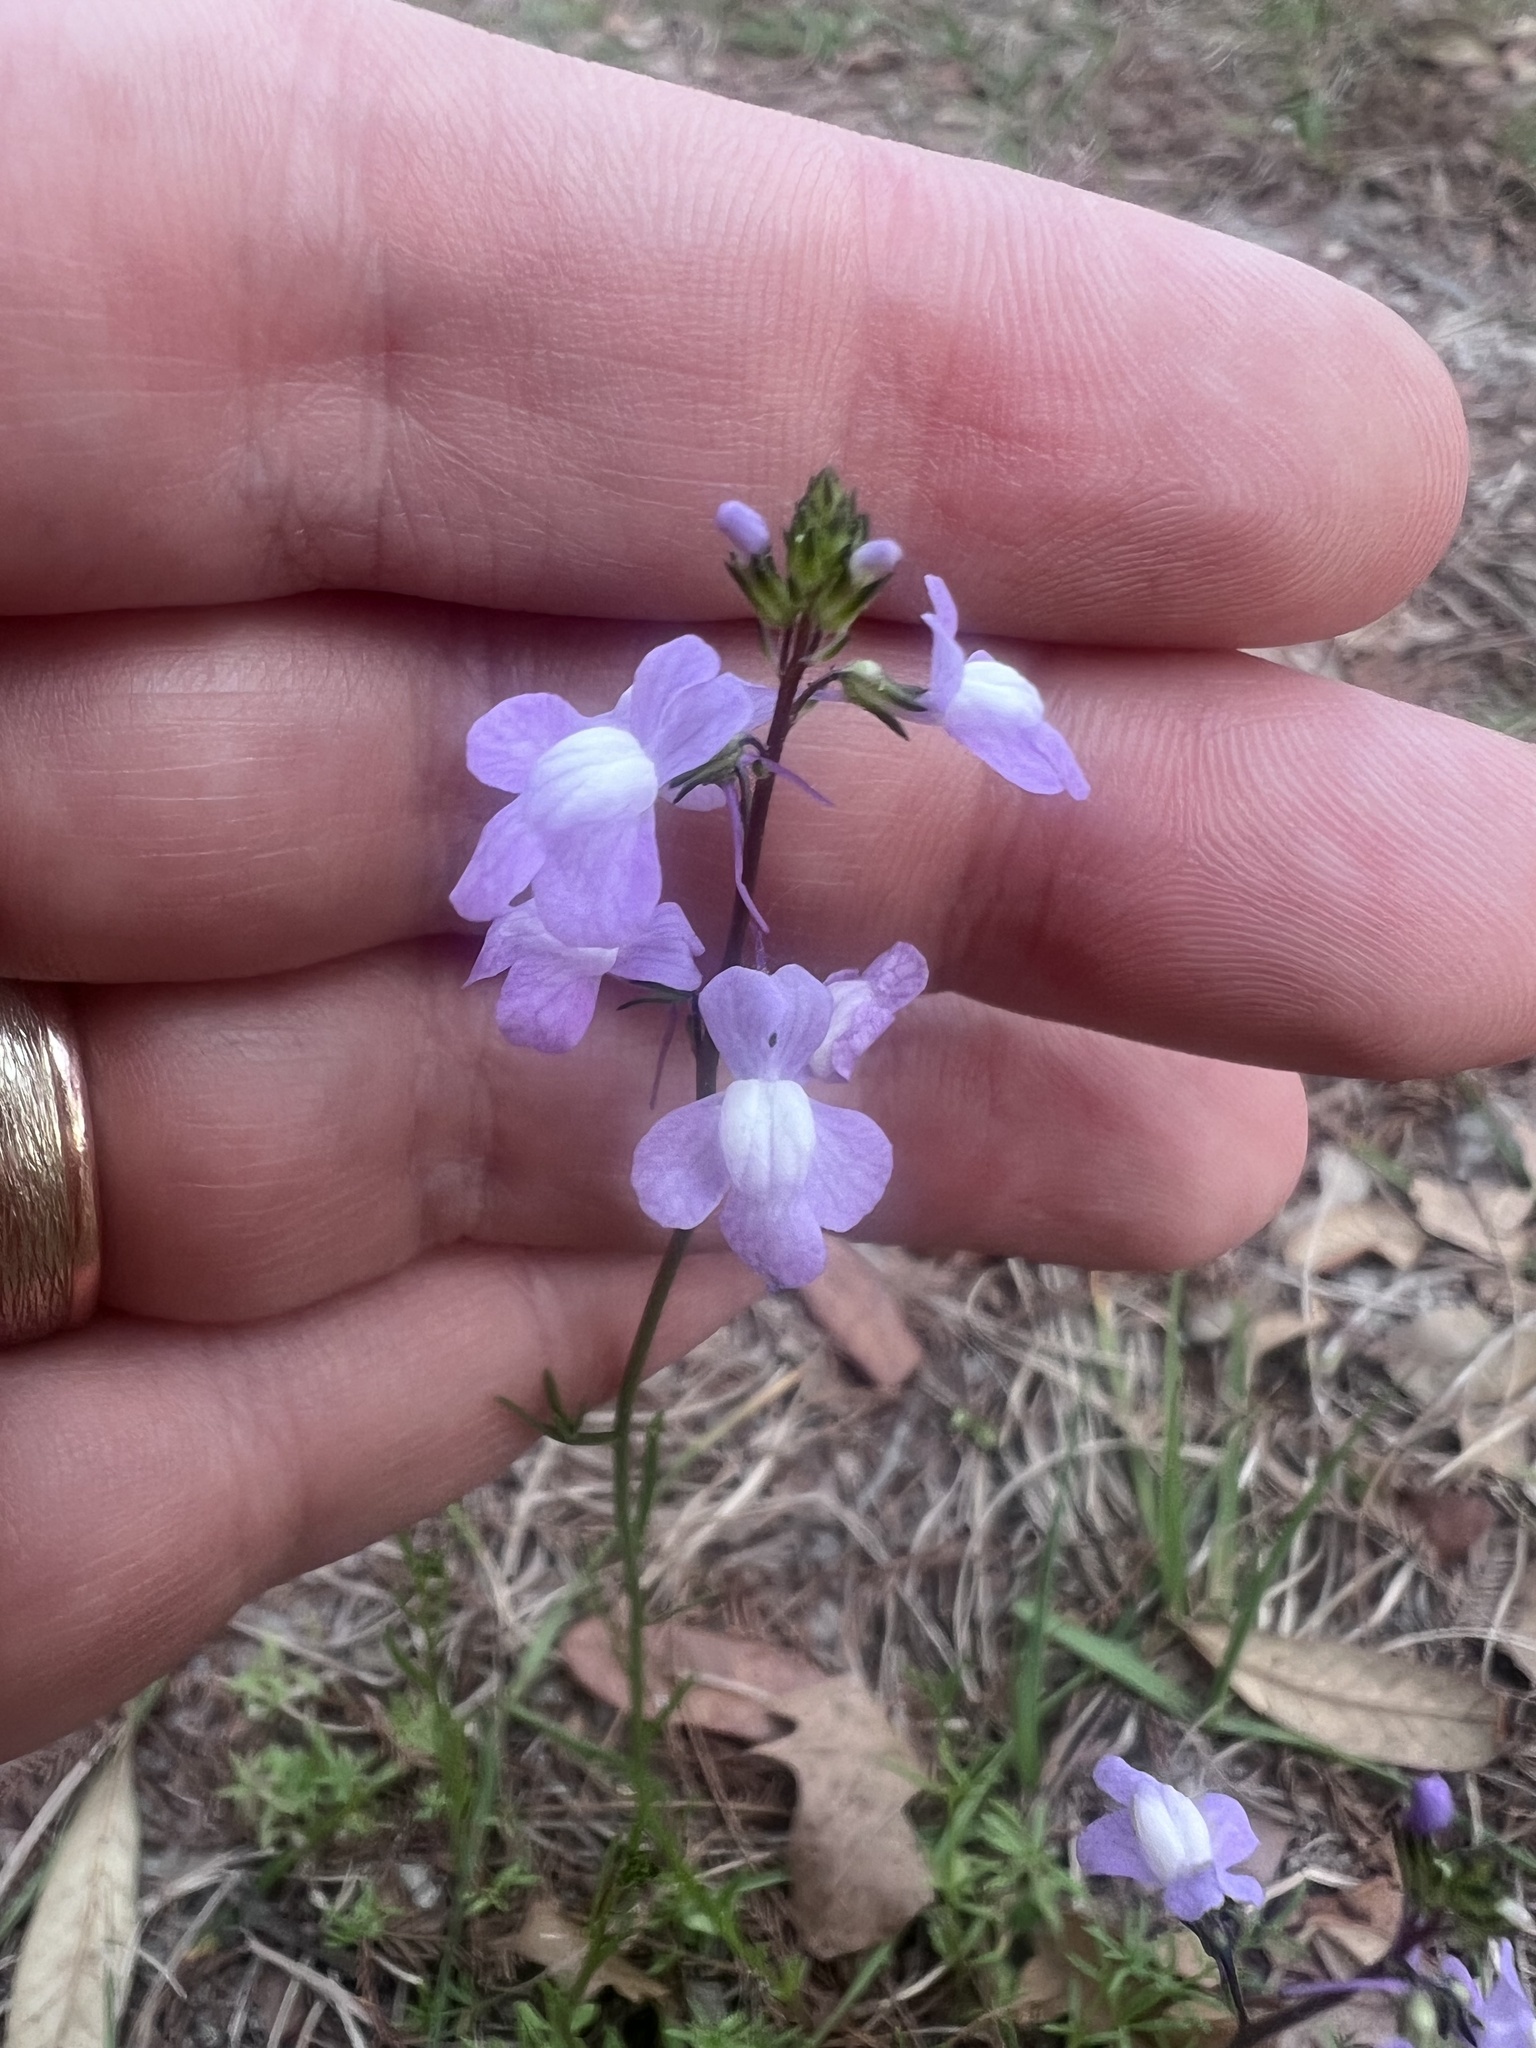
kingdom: Plantae
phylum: Tracheophyta
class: Magnoliopsida
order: Lamiales
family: Plantaginaceae
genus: Nuttallanthus
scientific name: Nuttallanthus canadensis
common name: Blue toadflax
